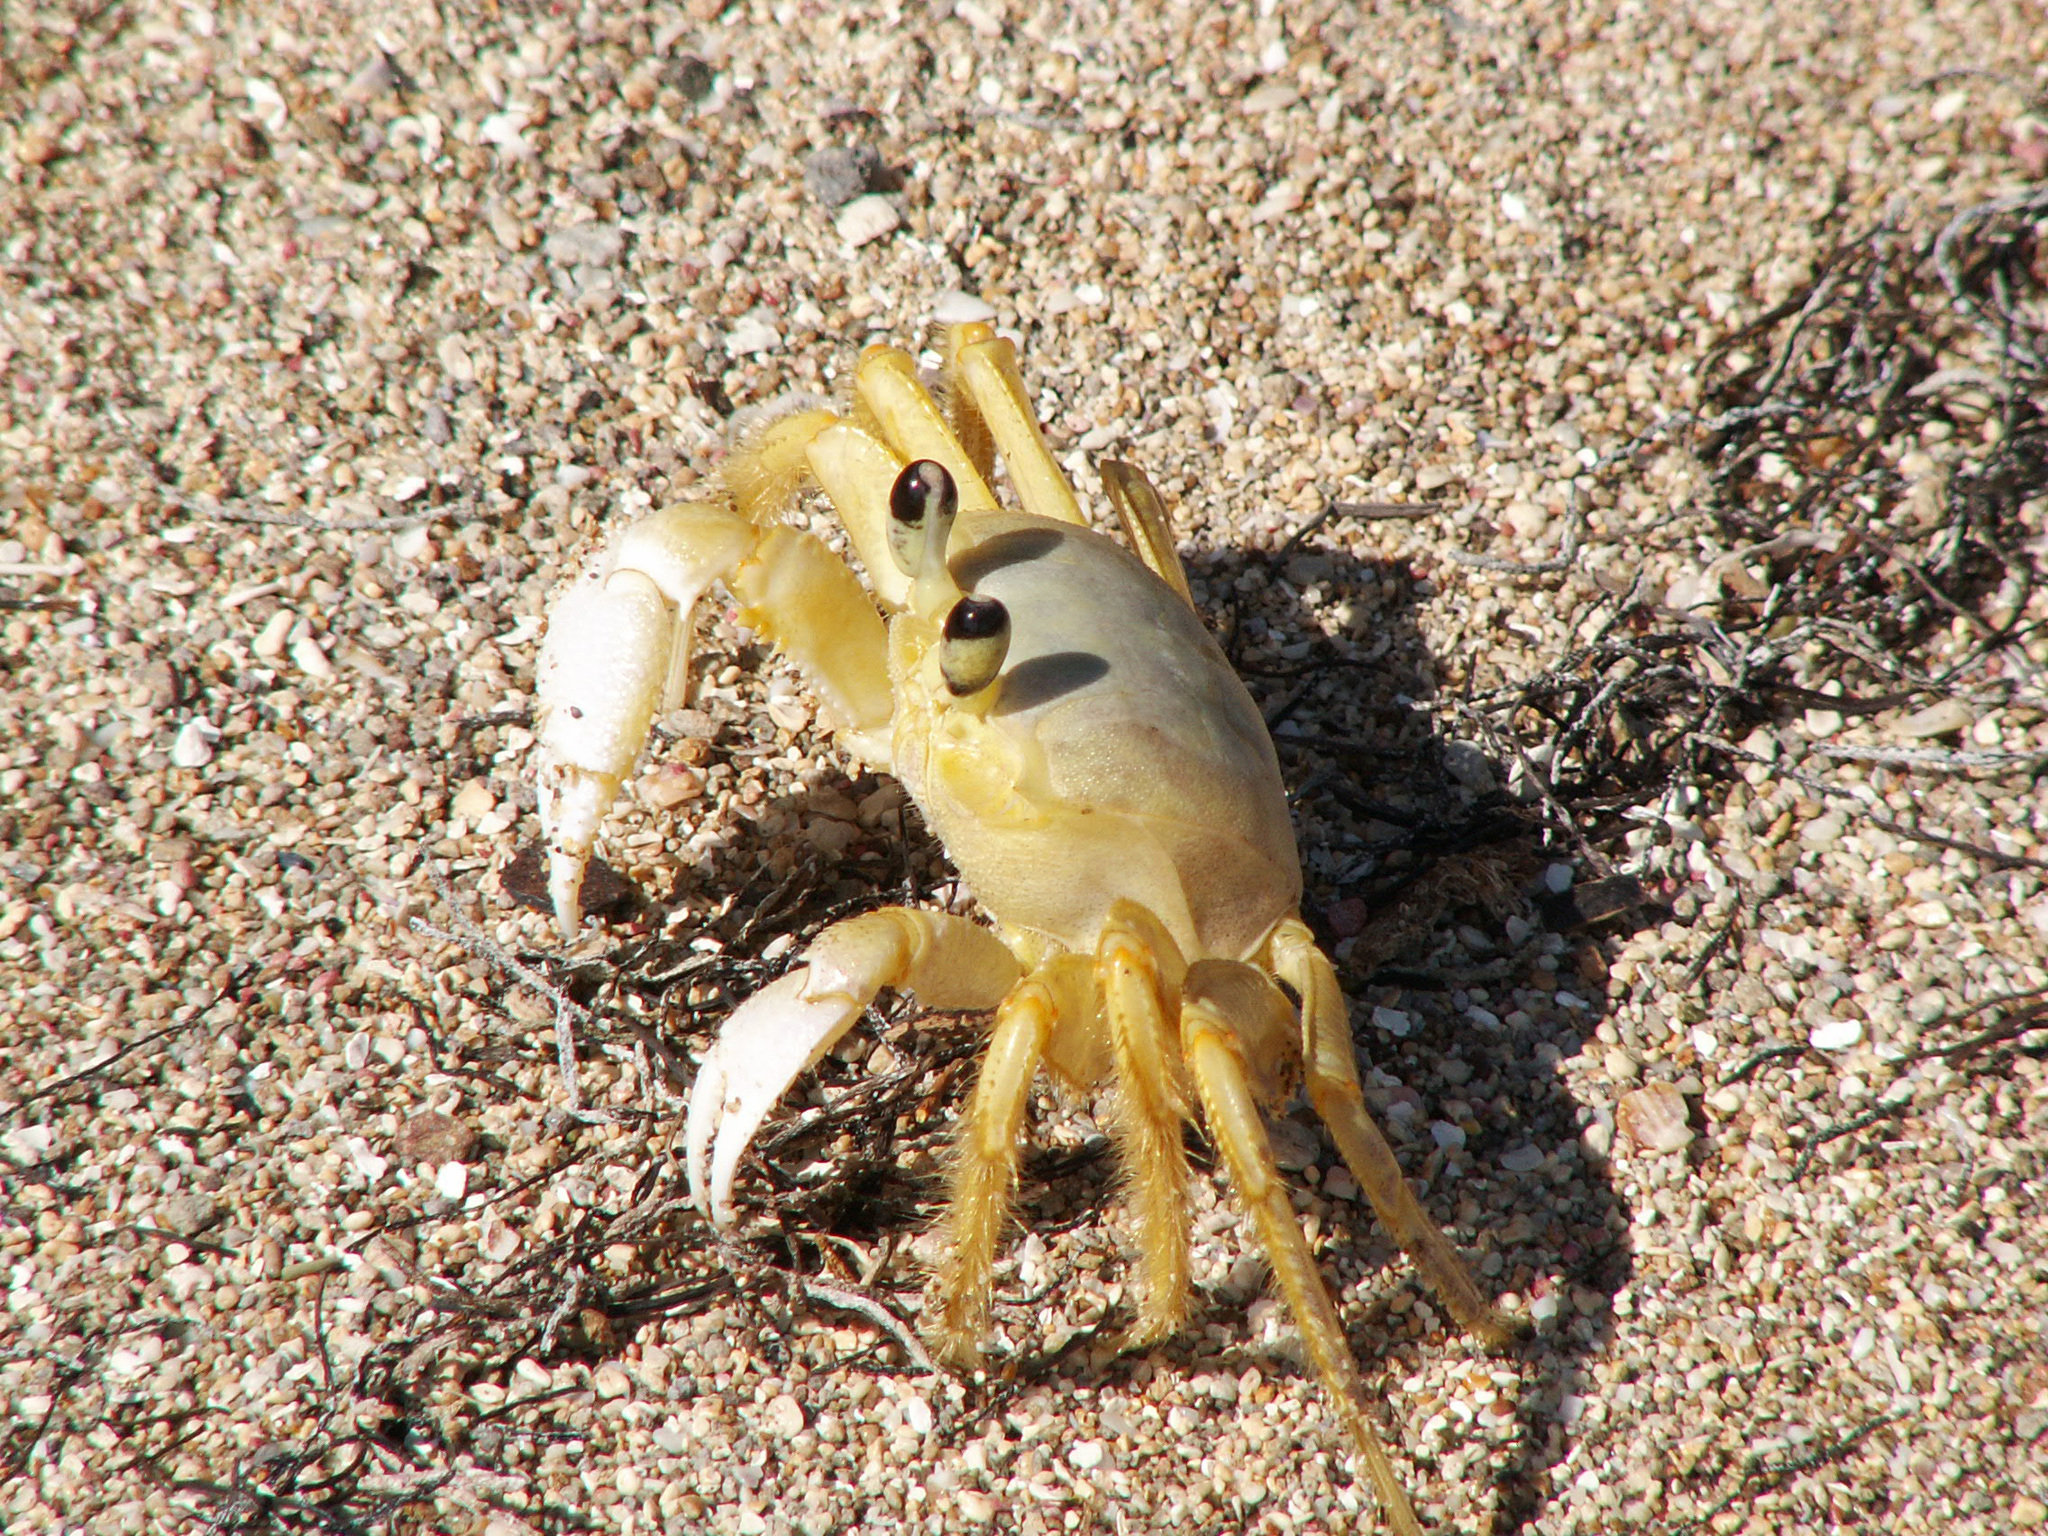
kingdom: Animalia
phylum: Arthropoda
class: Malacostraca
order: Decapoda
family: Ocypodidae
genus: Ocypode
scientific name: Ocypode quadrata
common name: Ghost crab
